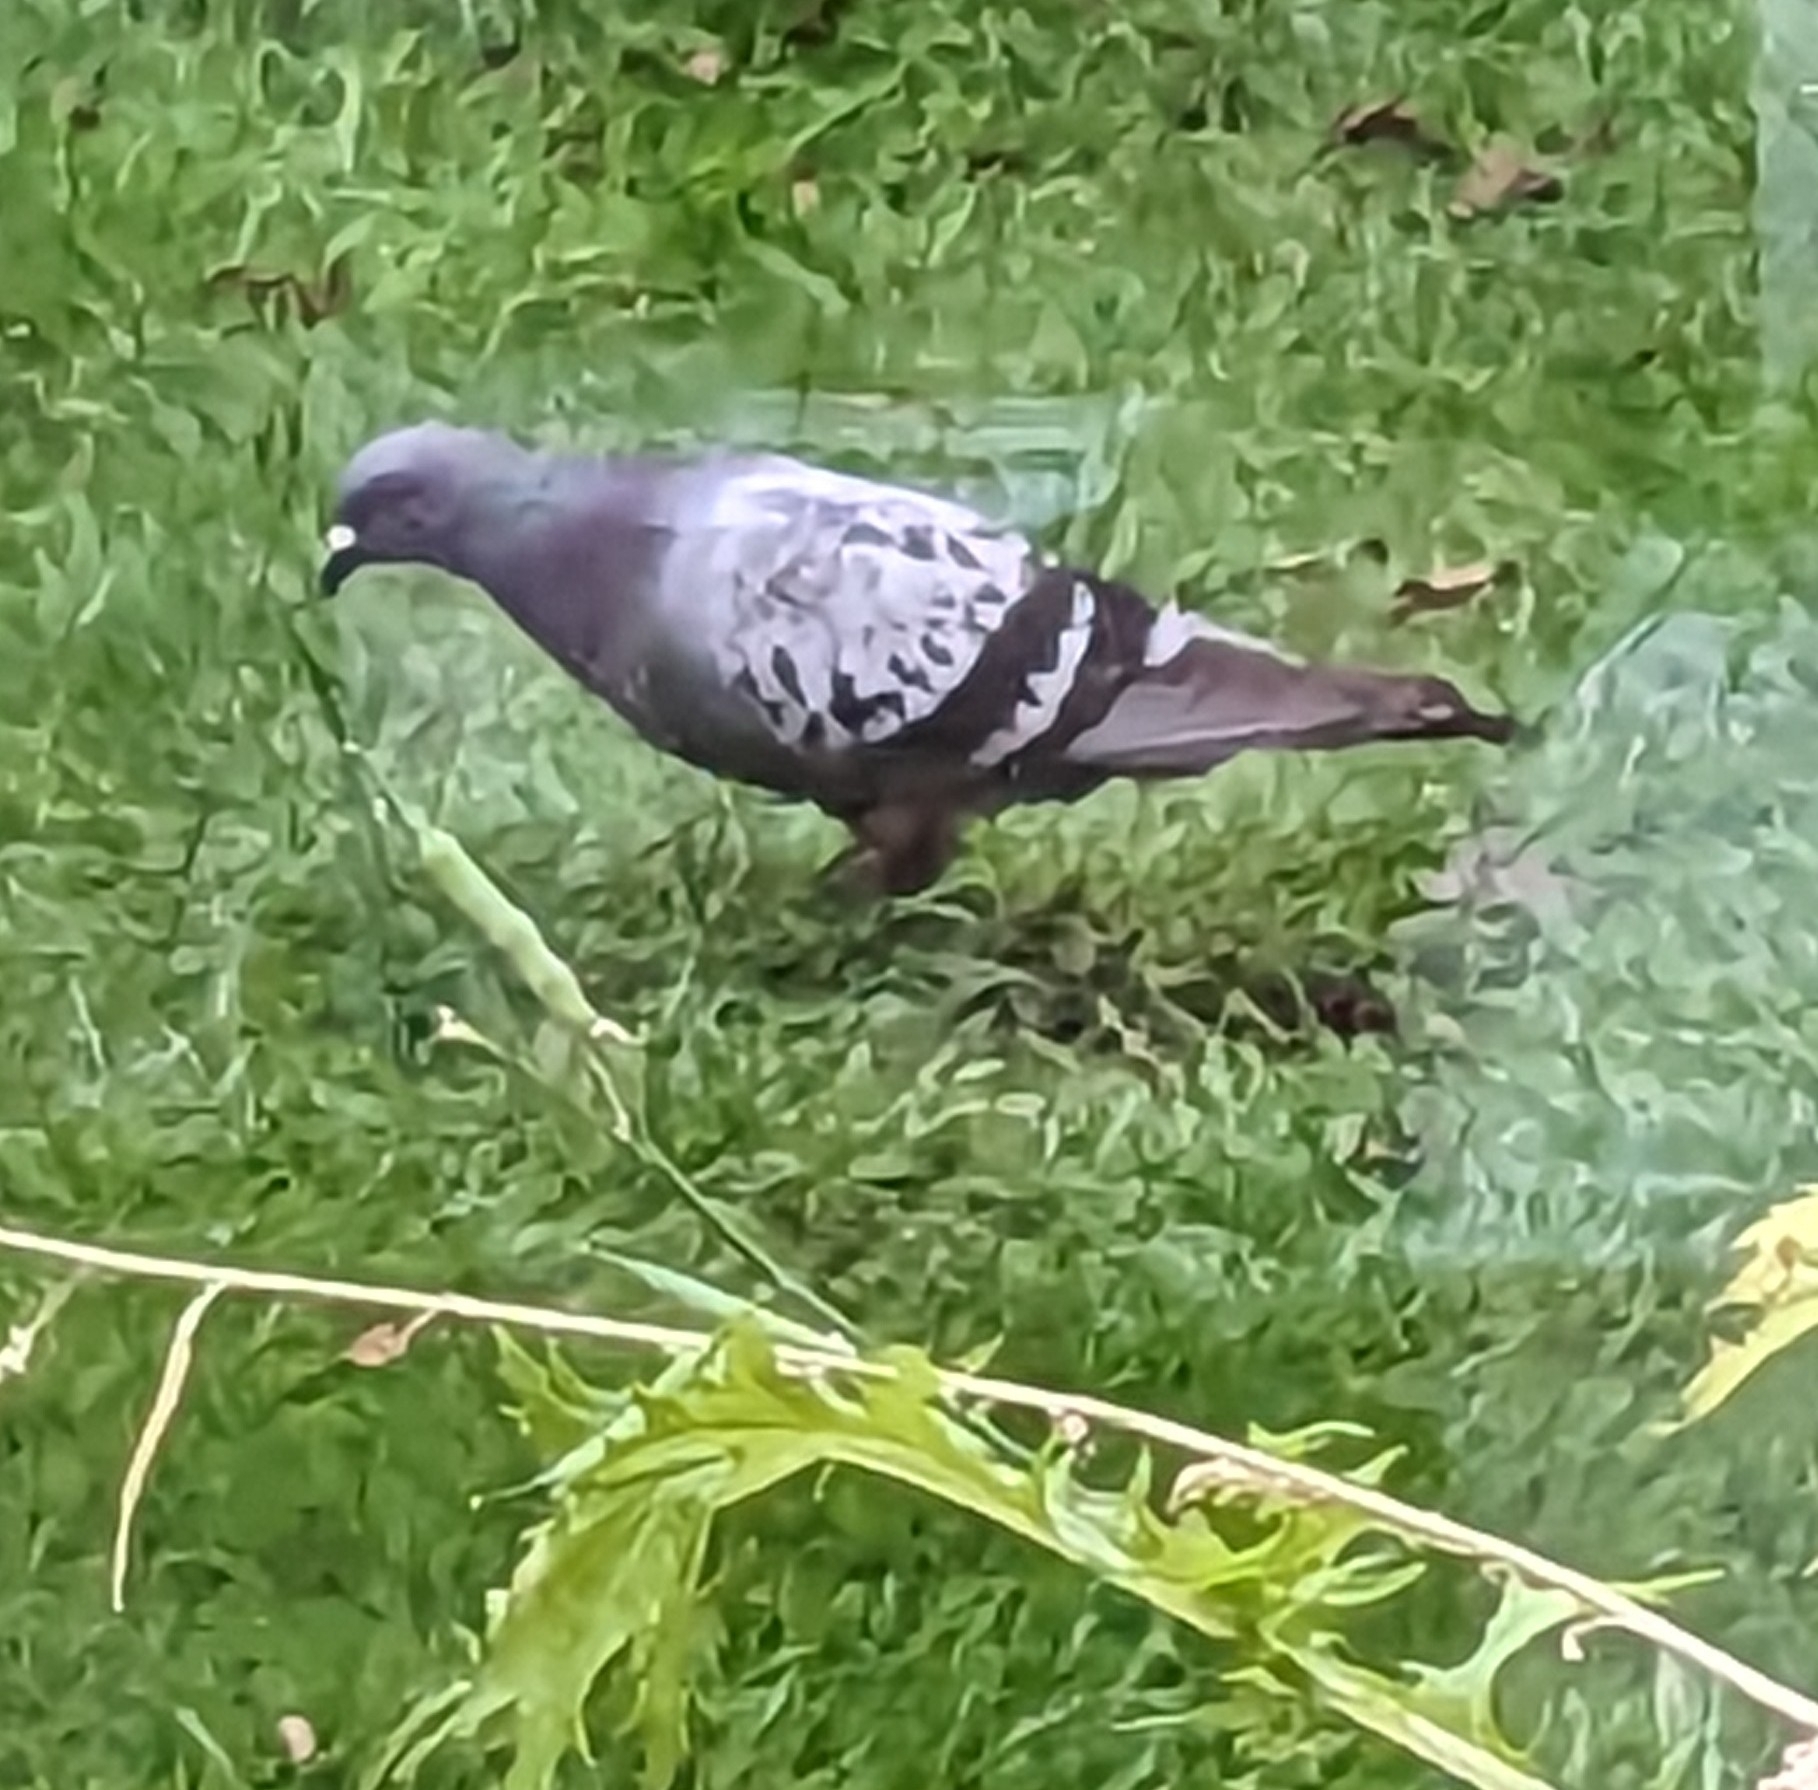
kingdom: Animalia
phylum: Chordata
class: Aves
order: Columbiformes
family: Columbidae
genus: Columba
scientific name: Columba livia
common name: Rock pigeon
